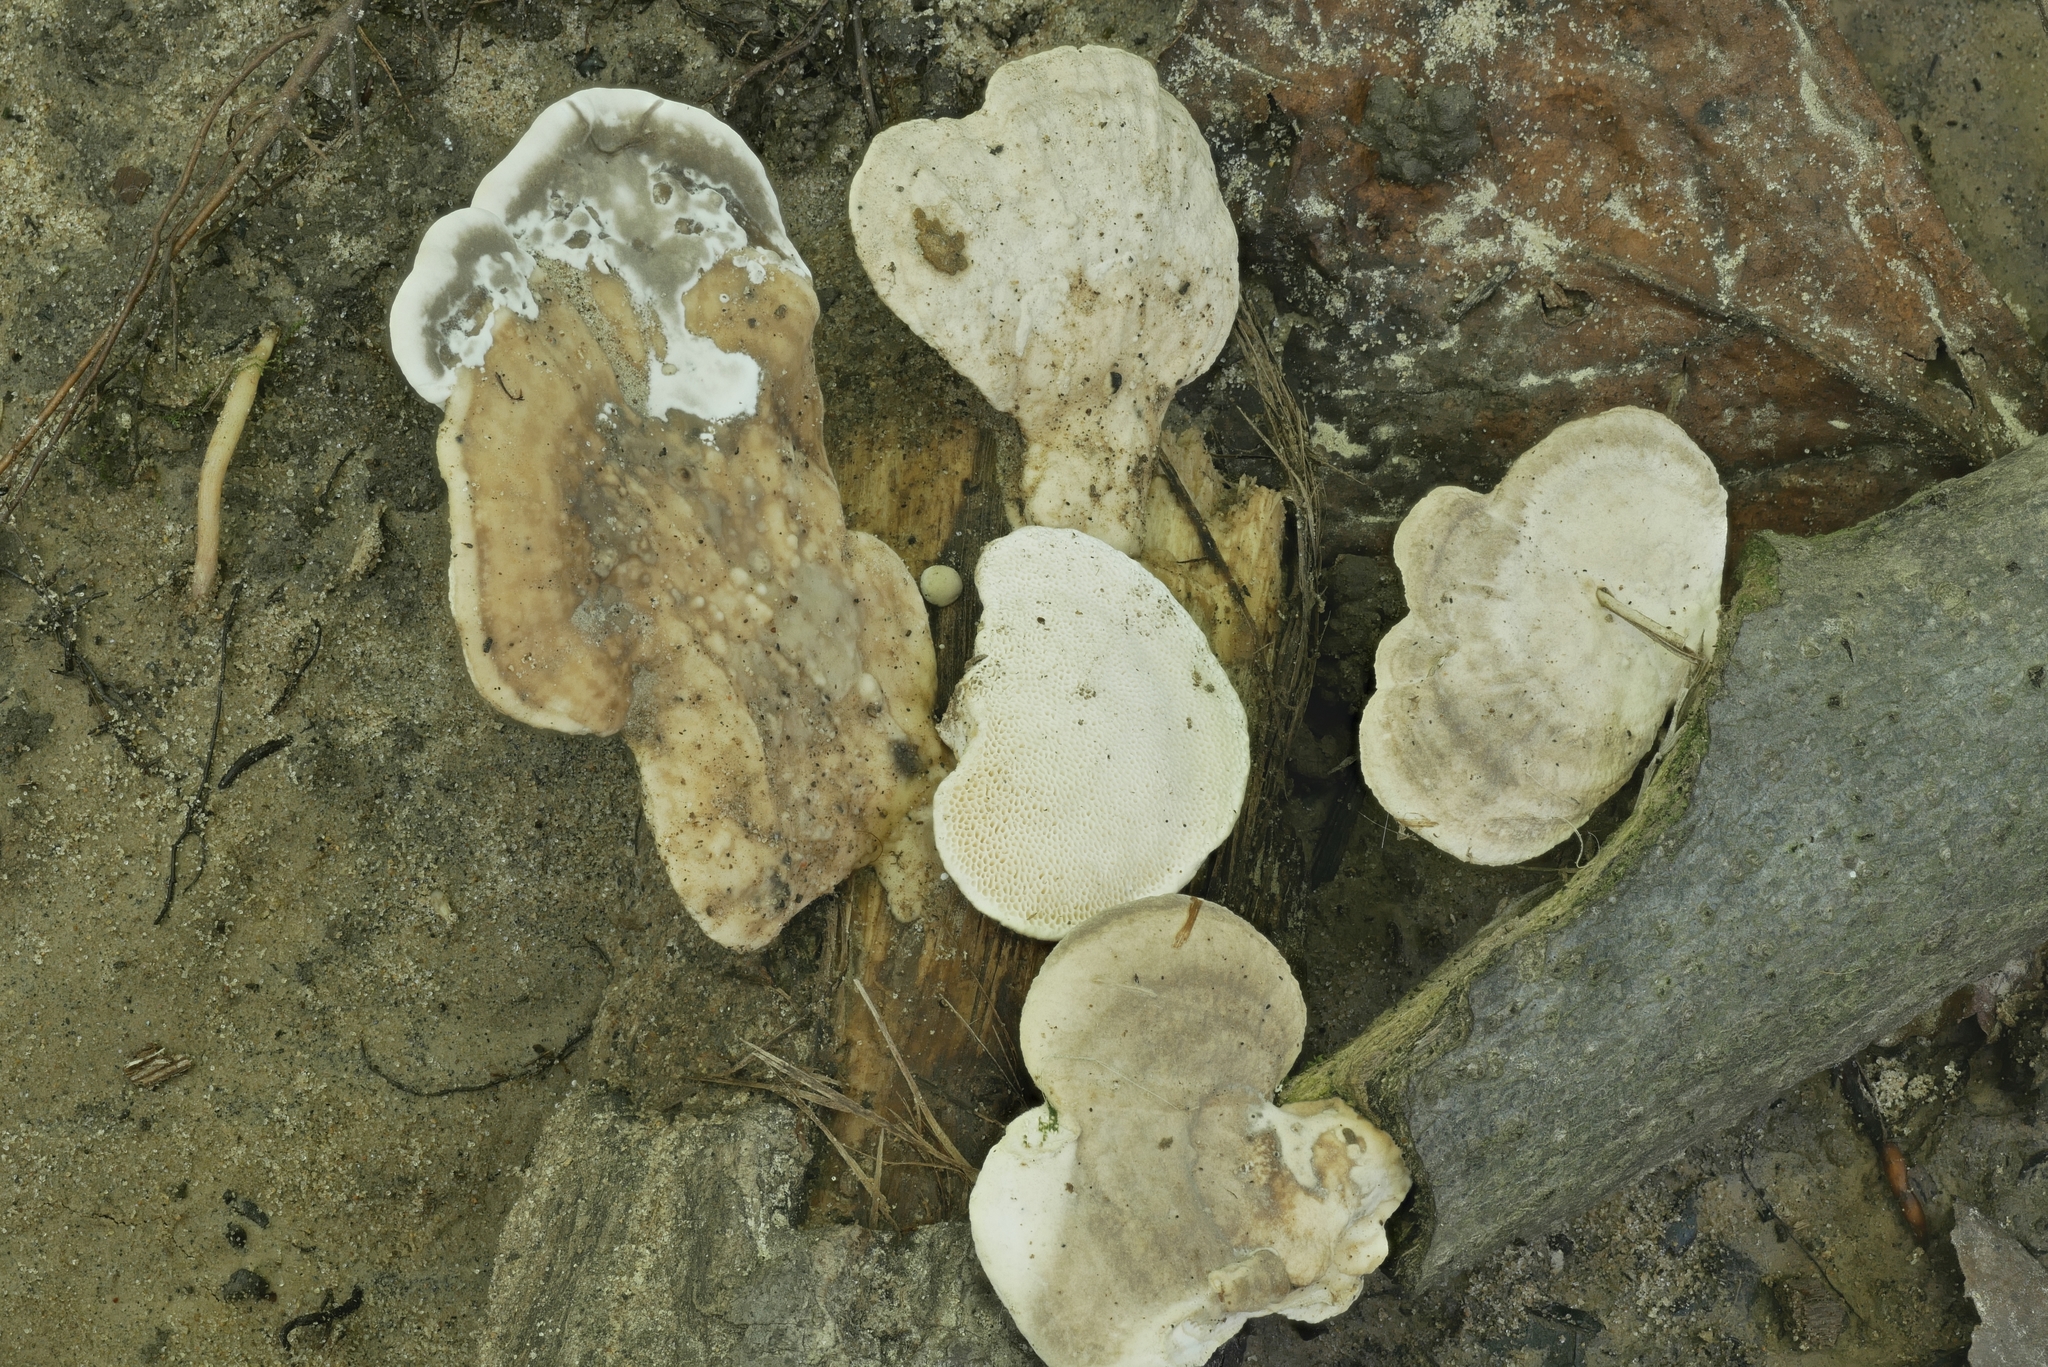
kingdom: Fungi
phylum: Basidiomycota
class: Agaricomycetes
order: Polyporales
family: Polyporaceae
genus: Trametes
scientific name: Trametes lactinea
